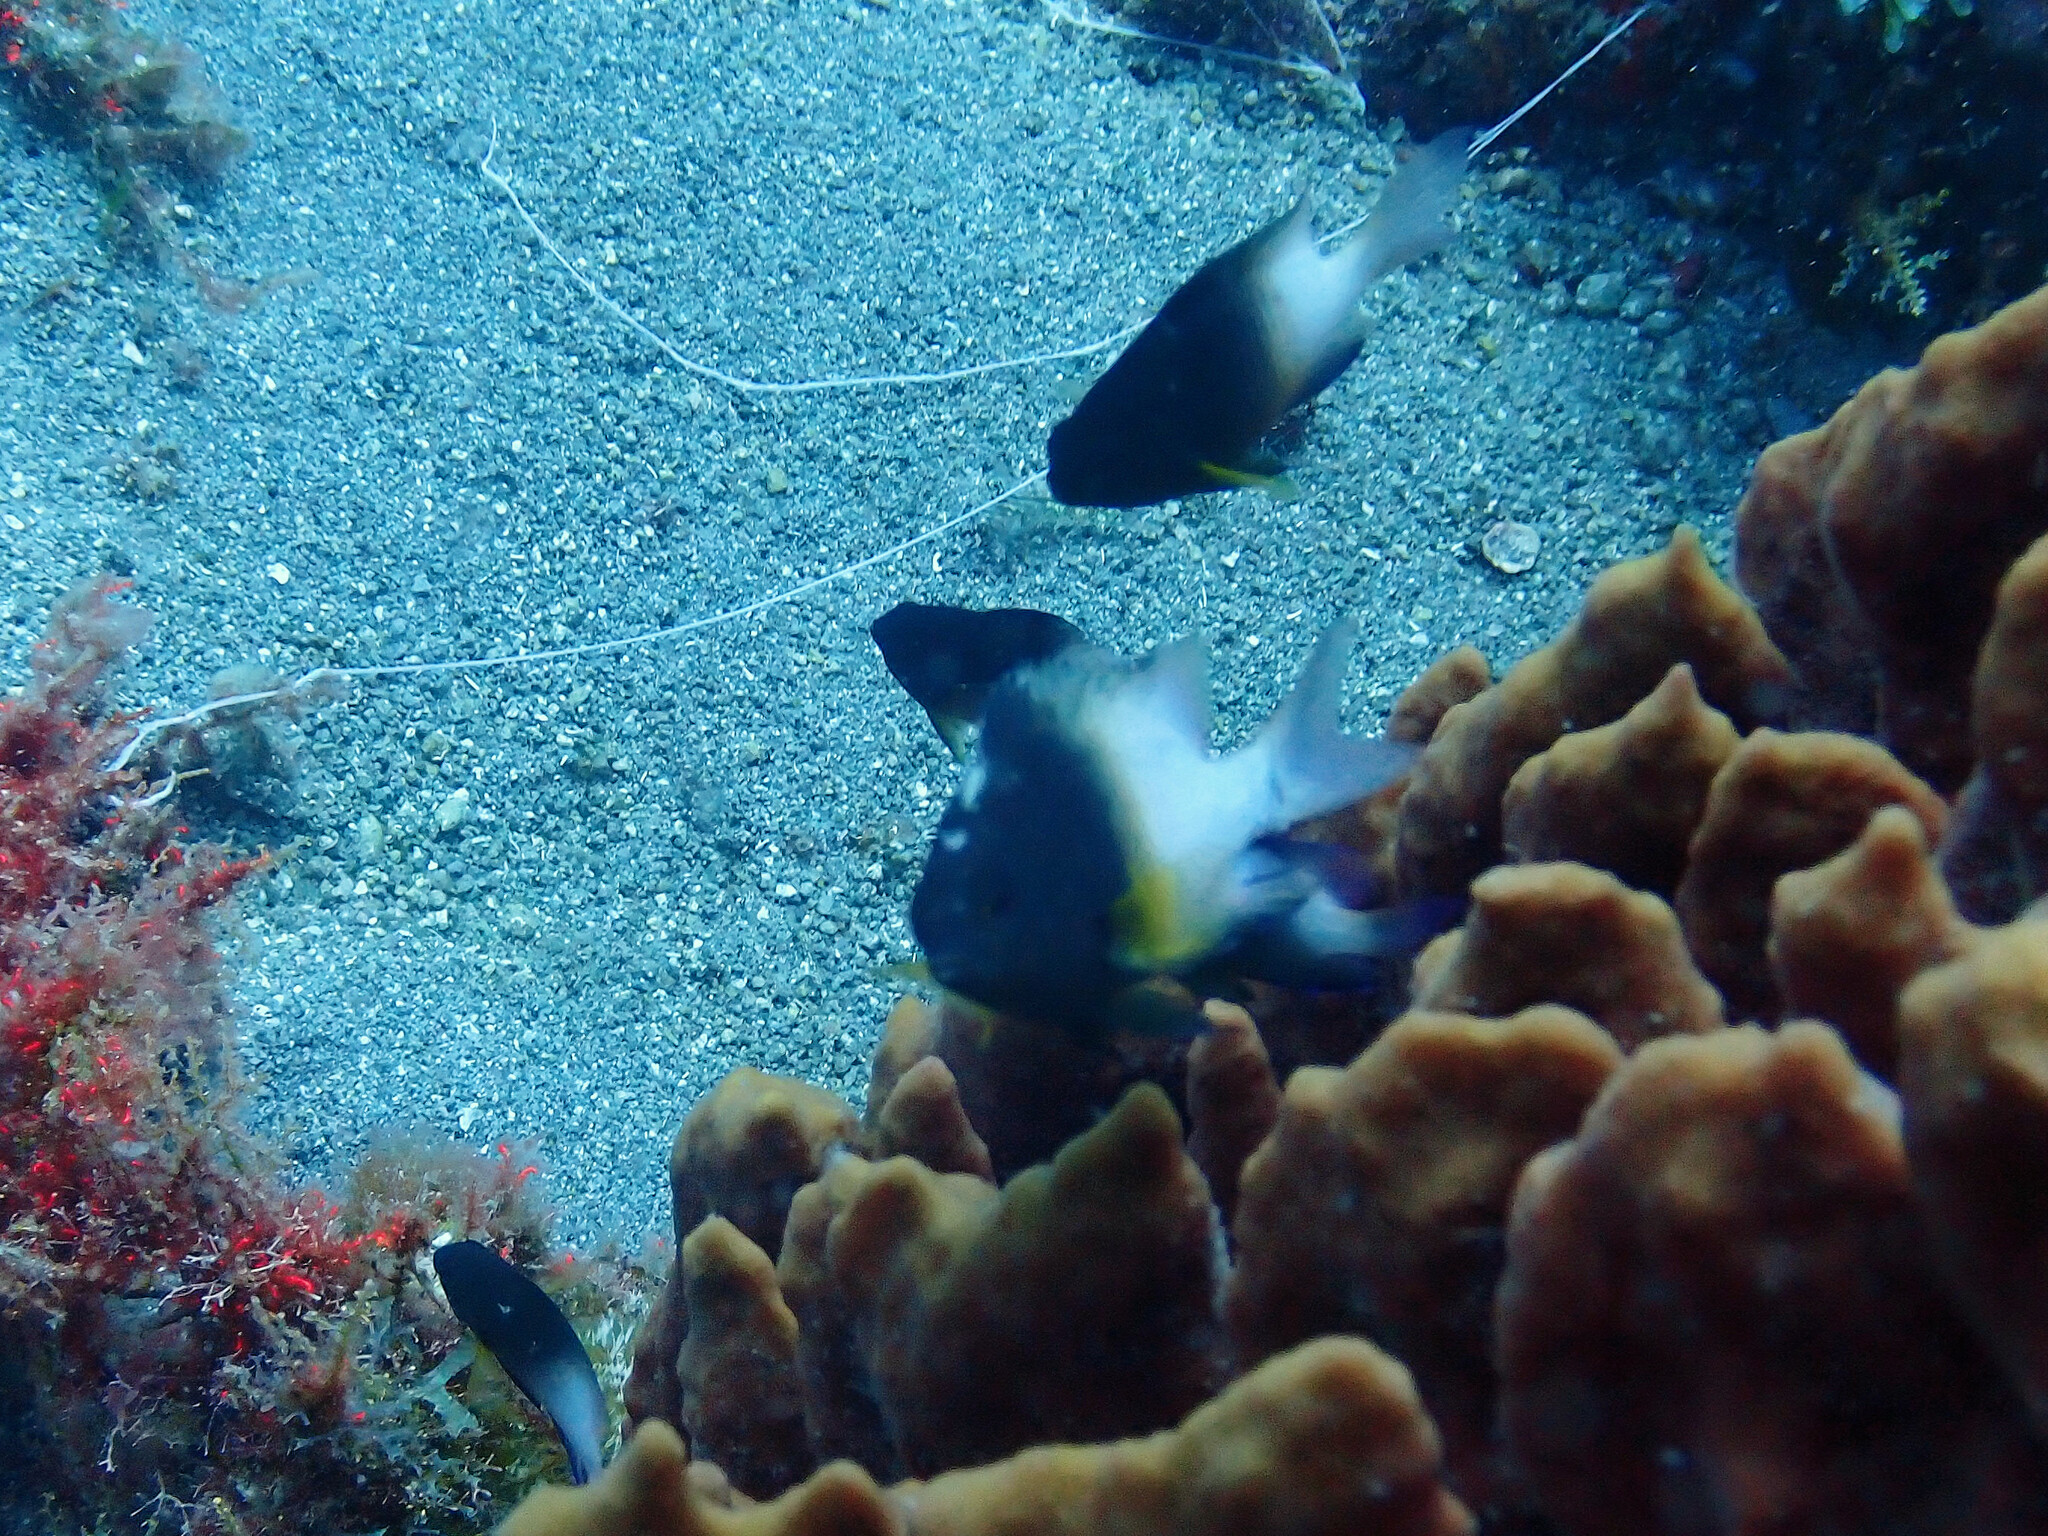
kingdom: Animalia
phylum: Chordata
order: Perciformes
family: Pomacentridae
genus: Stegastes
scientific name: Stegastes partitus
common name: Bicolor damselfish
